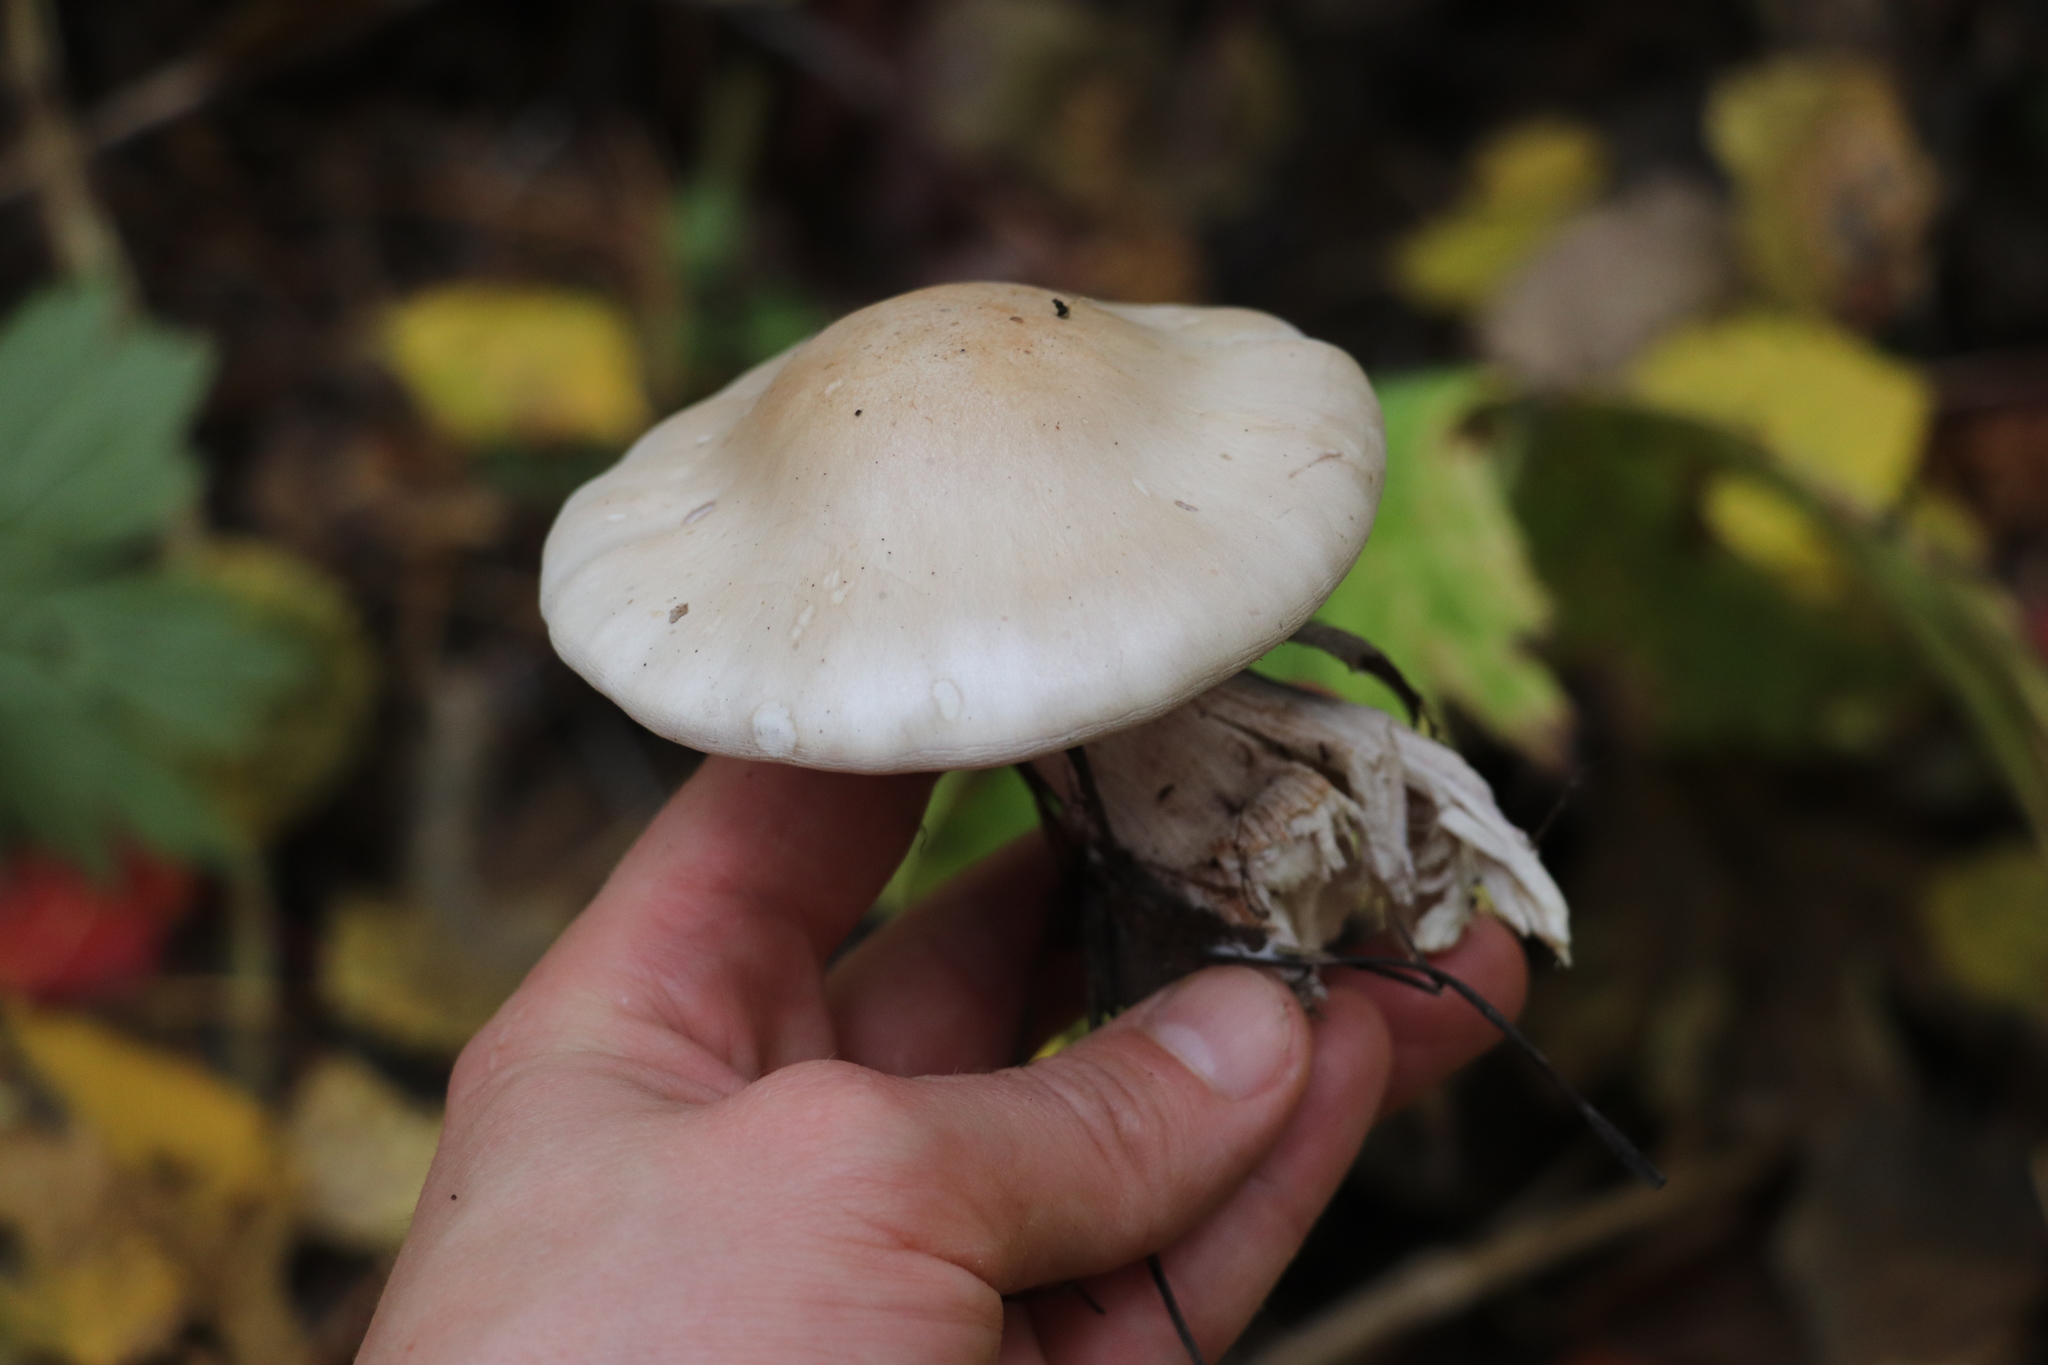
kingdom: Fungi
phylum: Basidiomycota
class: Agaricomycetes
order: Agaricales
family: Tricholomataceae
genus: Clitocybe
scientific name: Clitocybe nebularis
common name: Clouded agaric
